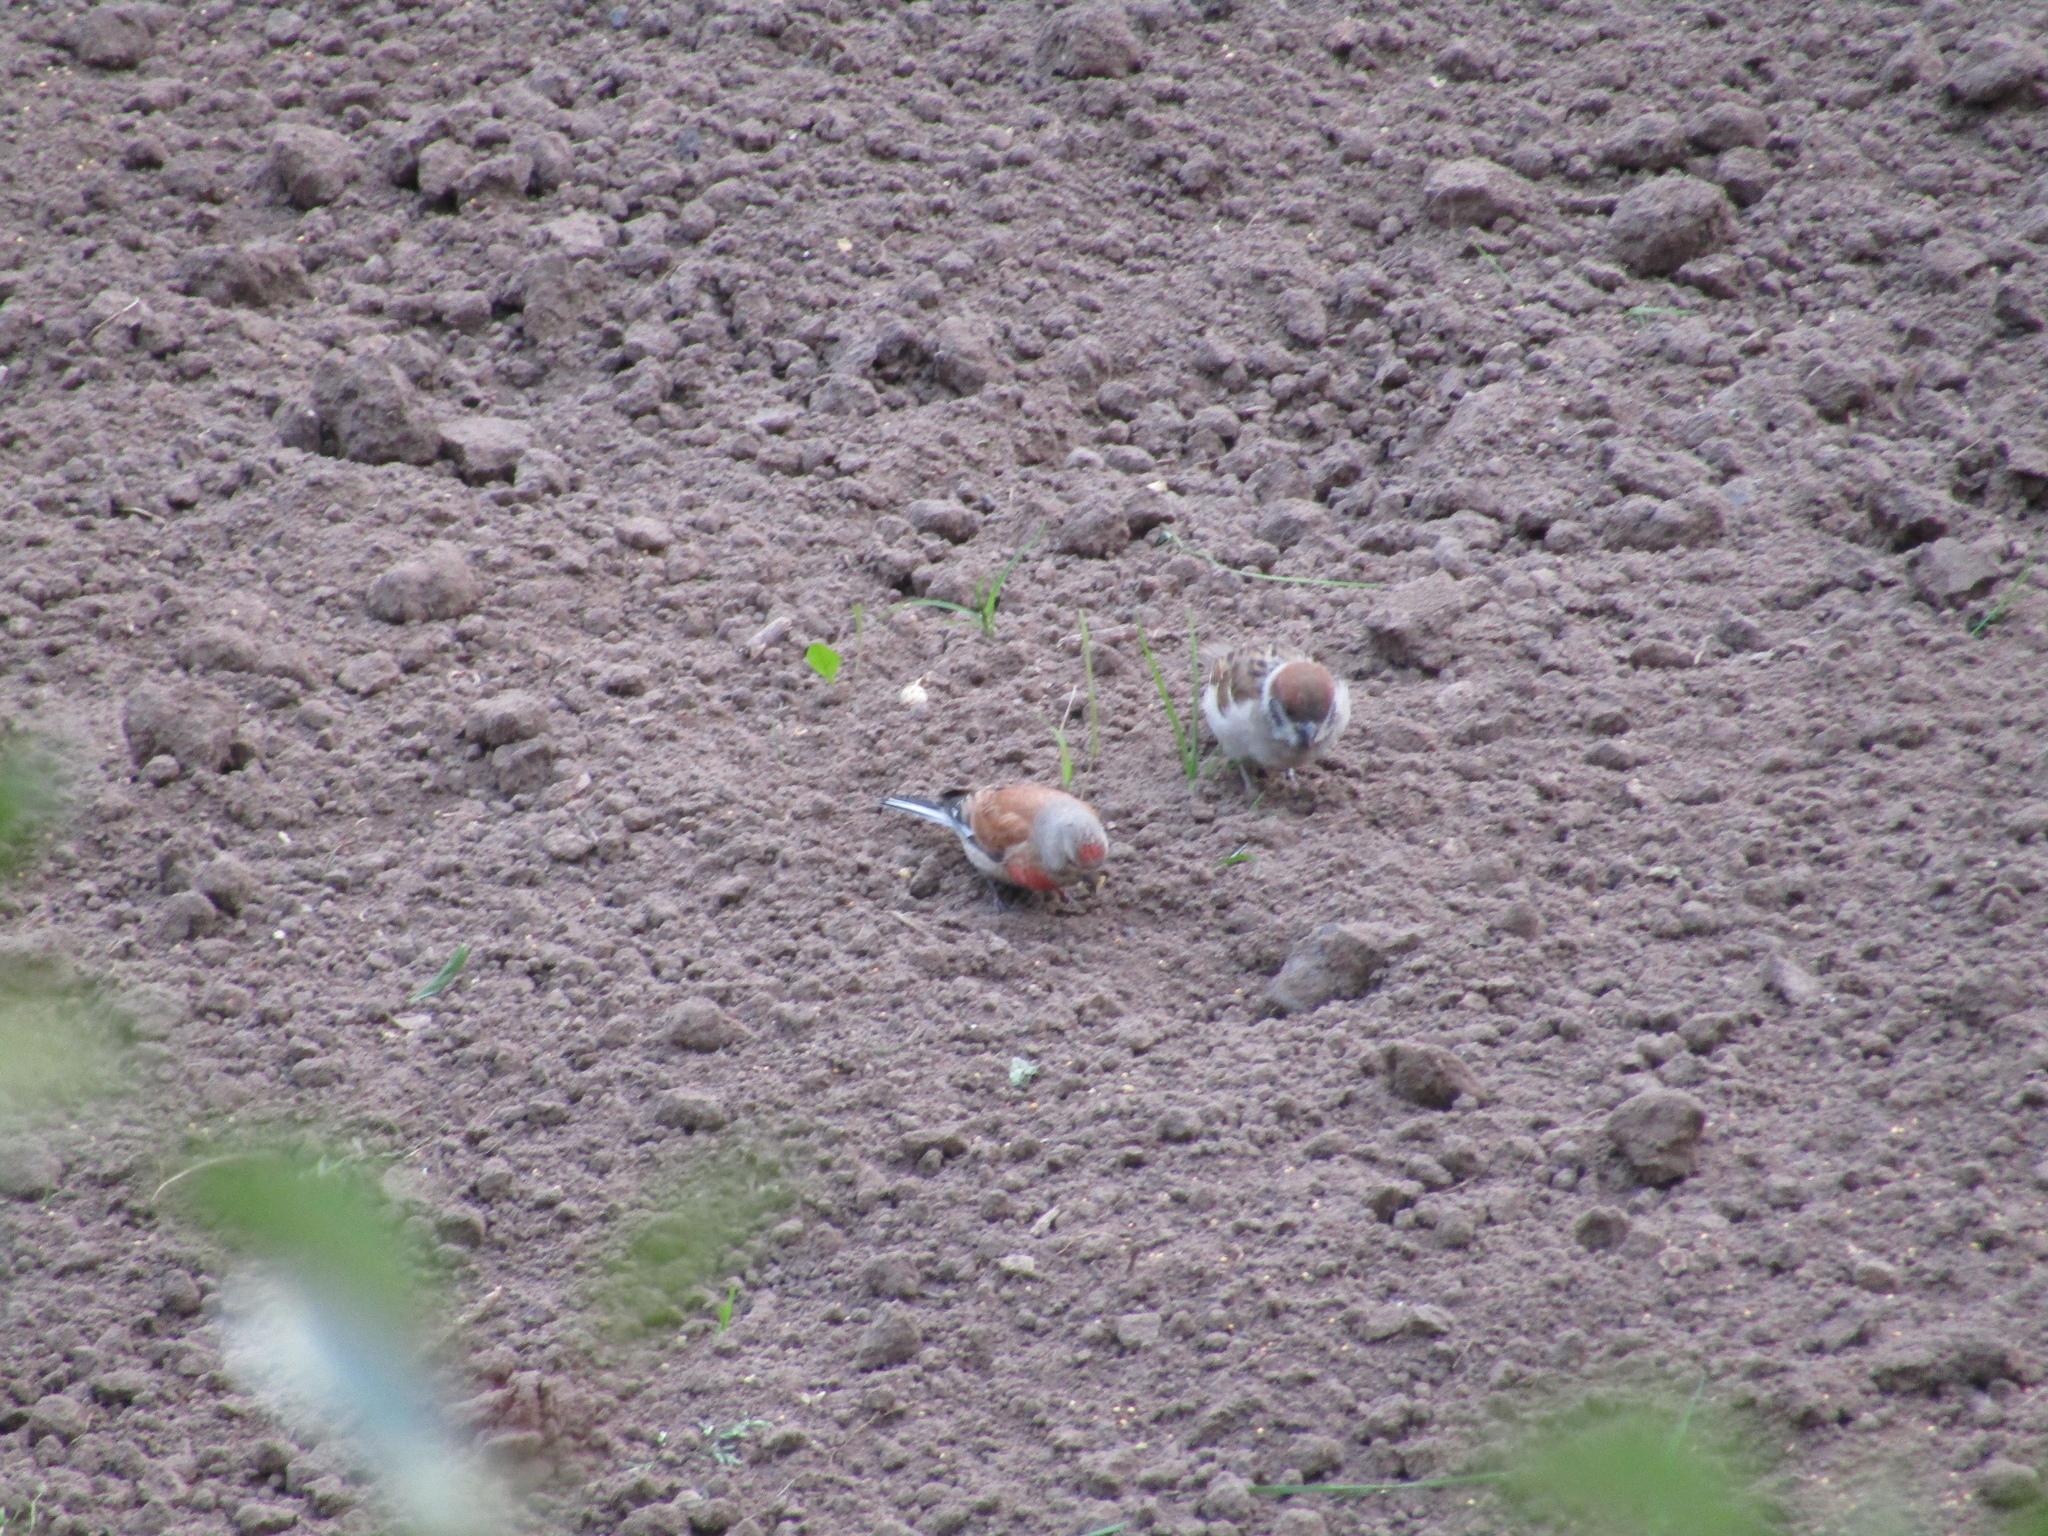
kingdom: Animalia
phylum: Chordata
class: Aves
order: Passeriformes
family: Fringillidae
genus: Linaria
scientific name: Linaria cannabina
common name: Common linnet
